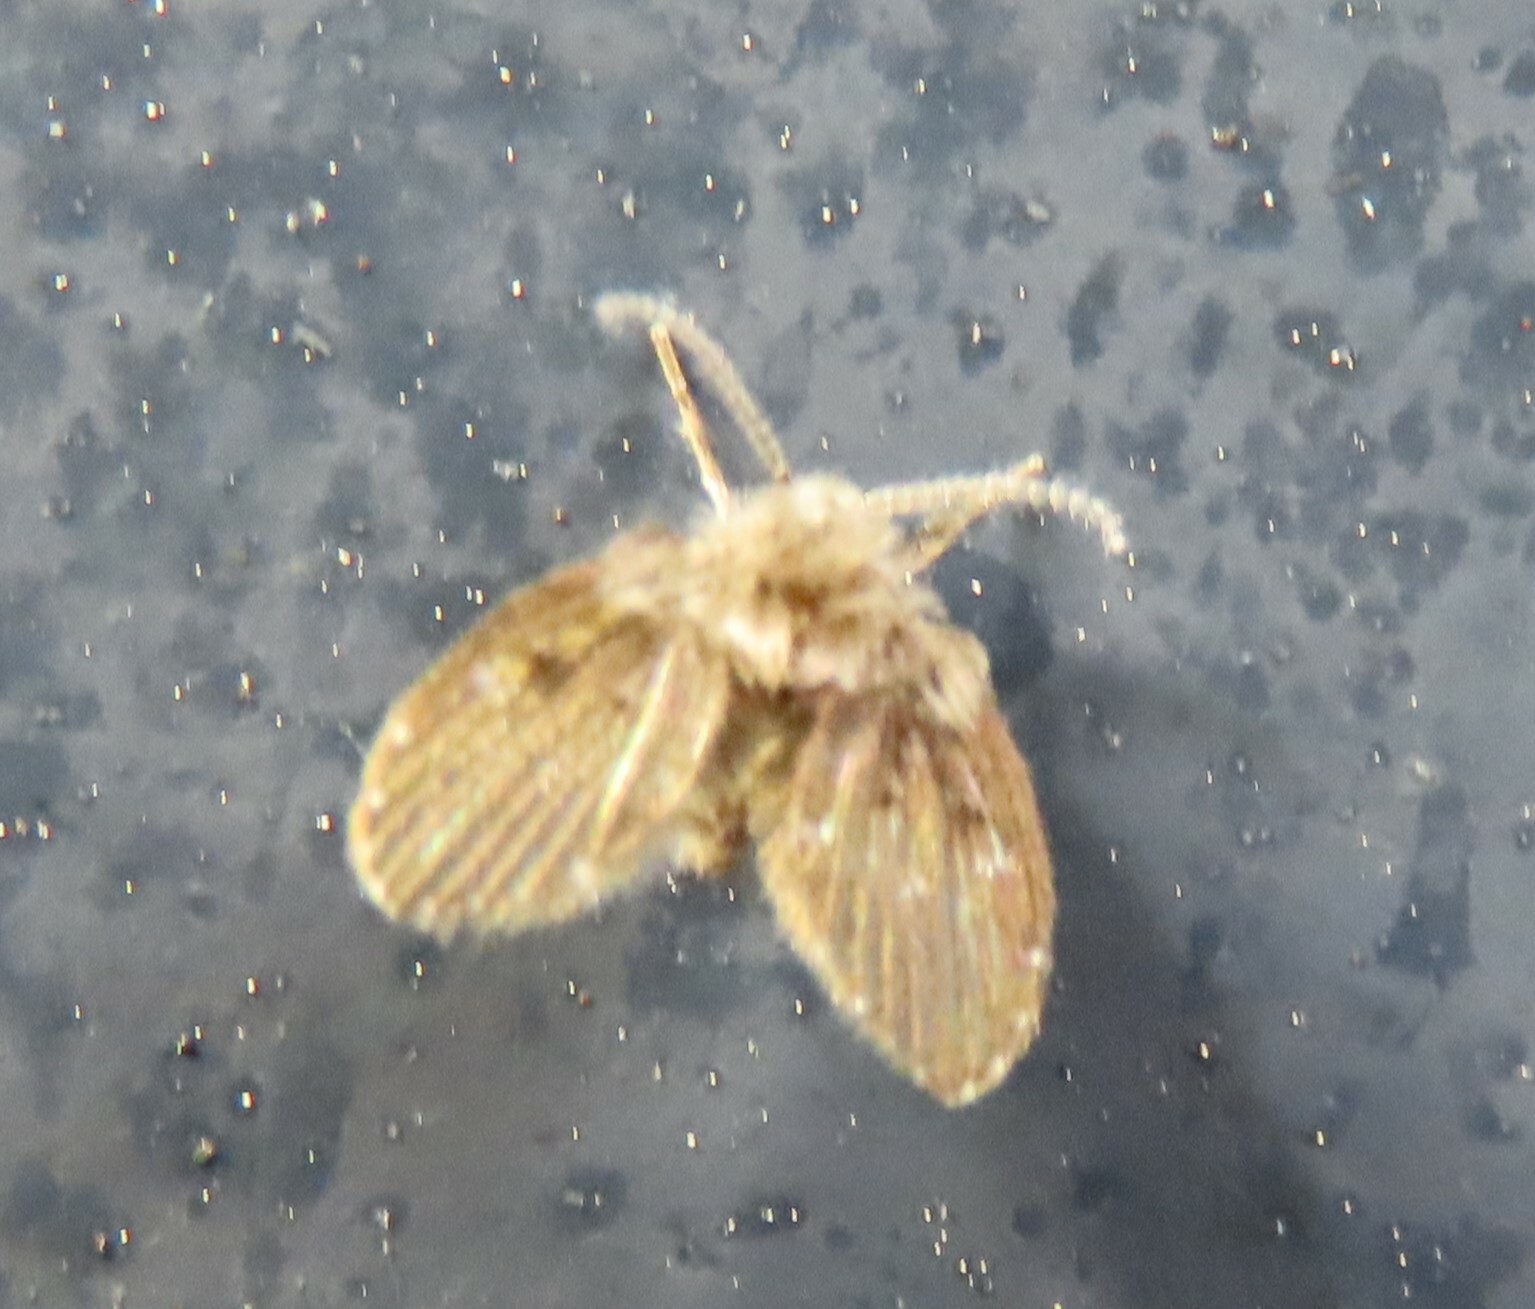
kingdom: Animalia
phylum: Arthropoda
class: Insecta
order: Diptera
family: Psychodidae
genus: Clogmia
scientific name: Clogmia albipunctatus
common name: White-spotted moth fly
